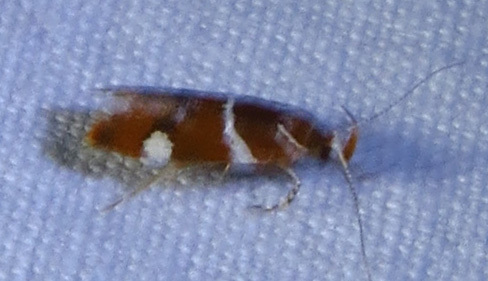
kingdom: Animalia
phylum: Arthropoda
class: Insecta
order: Lepidoptera
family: Oecophoridae
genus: Promalactis
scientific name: Promalactis suzukiella
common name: Moth
